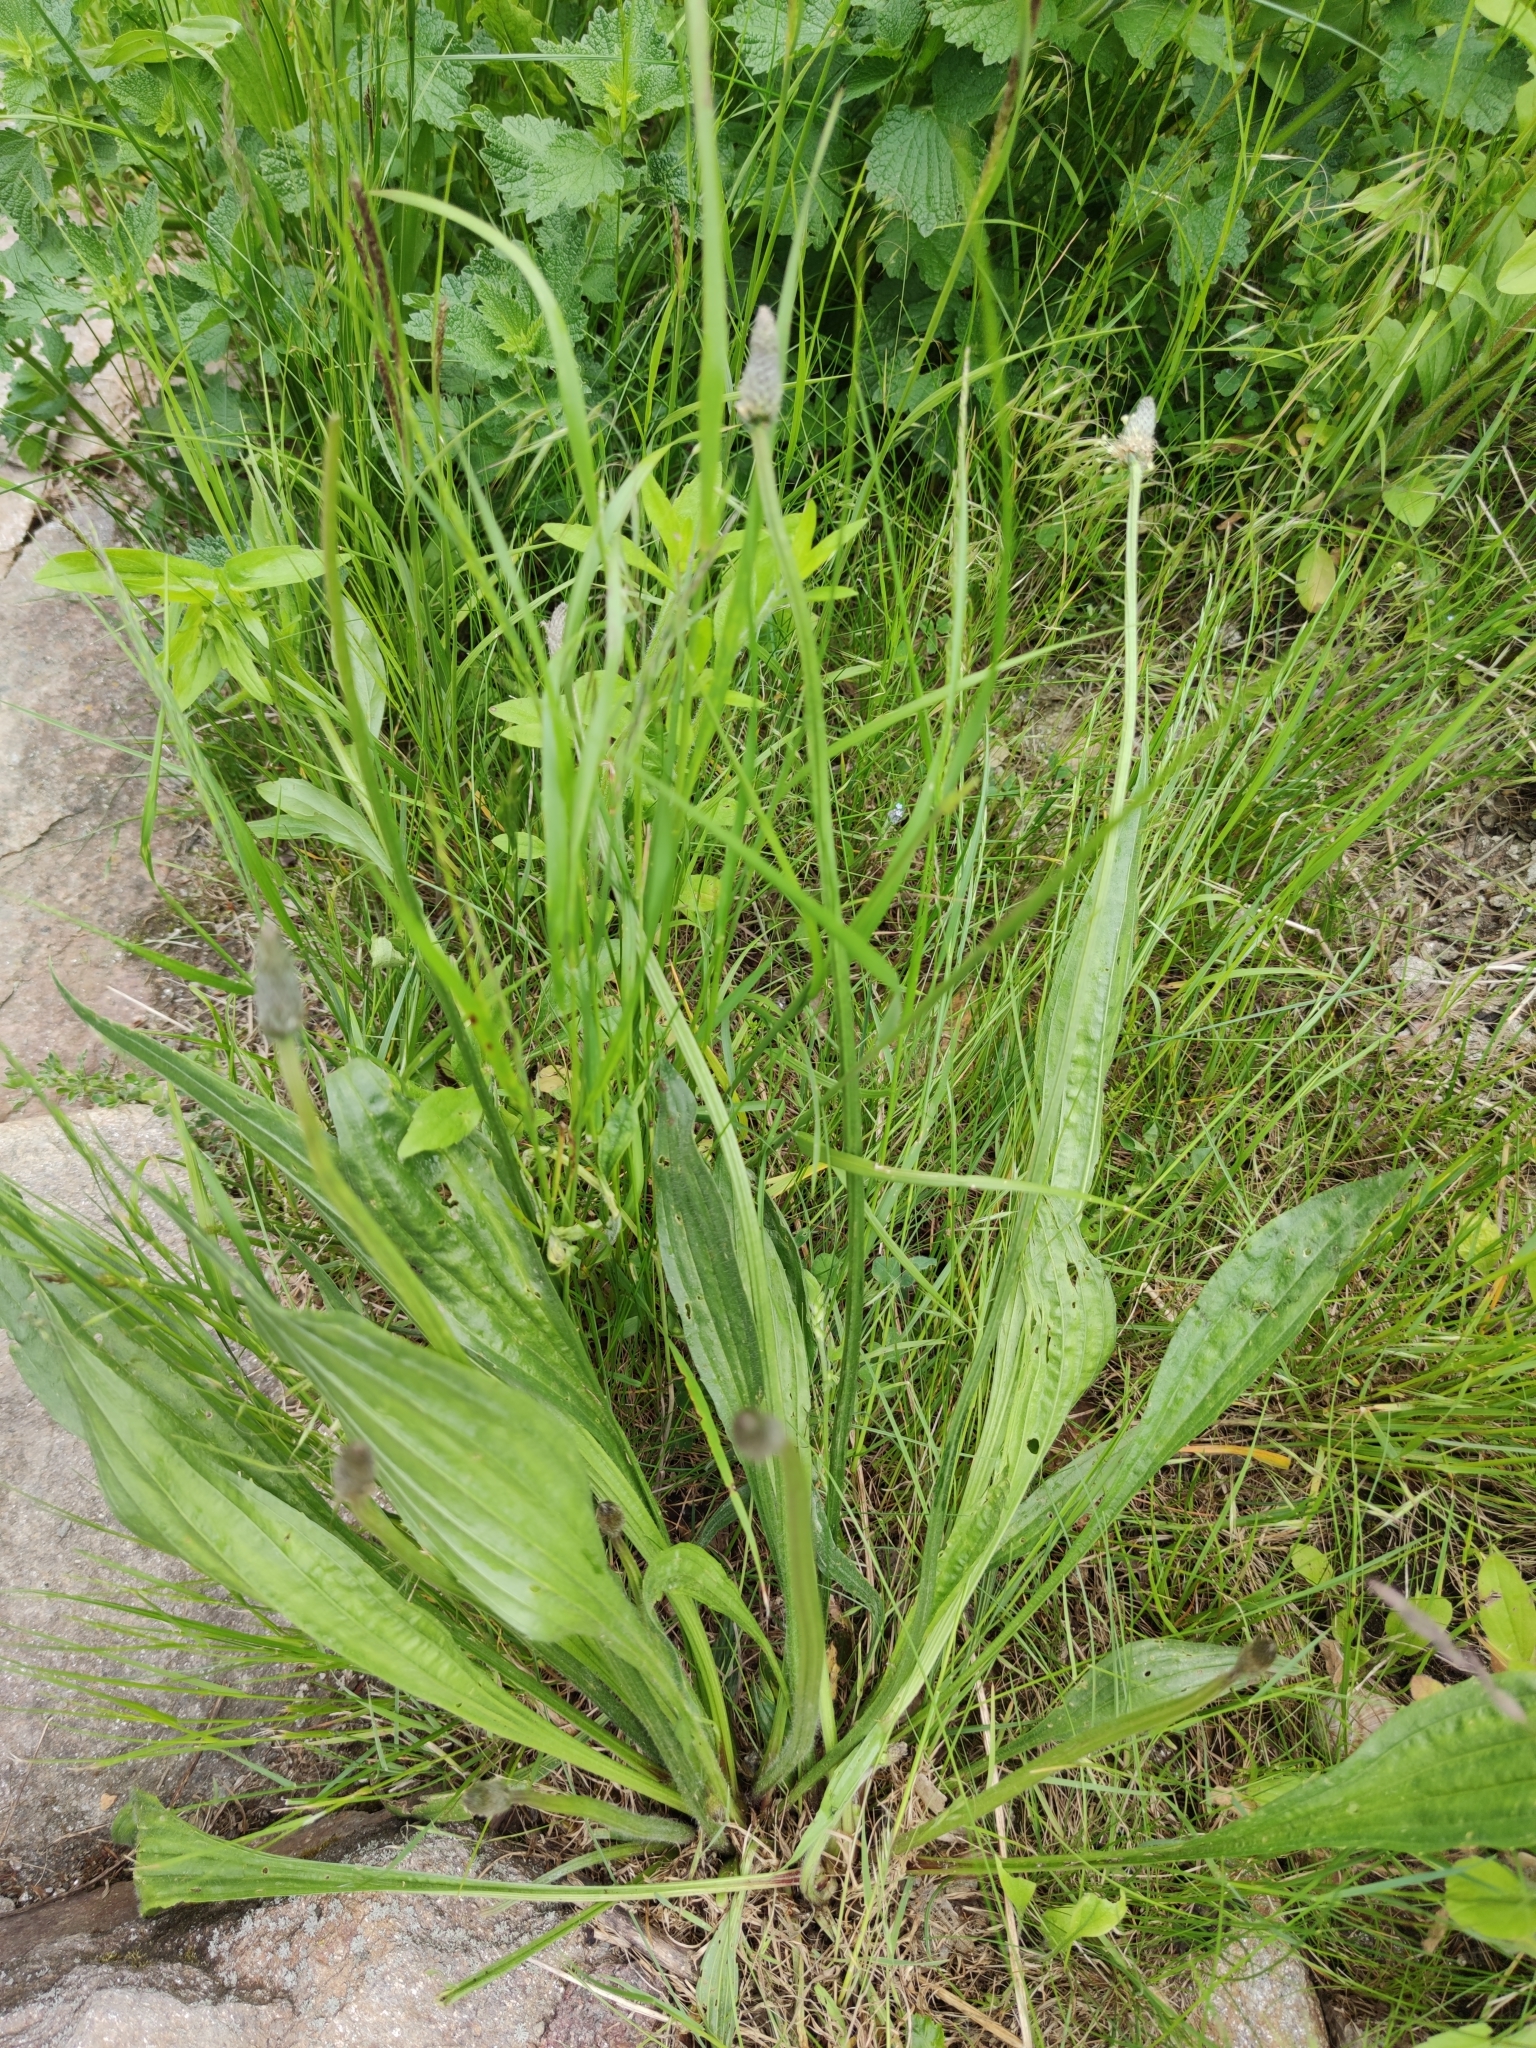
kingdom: Plantae
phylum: Tracheophyta
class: Magnoliopsida
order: Lamiales
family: Plantaginaceae
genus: Plantago
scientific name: Plantago lanceolata
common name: Ribwort plantain
